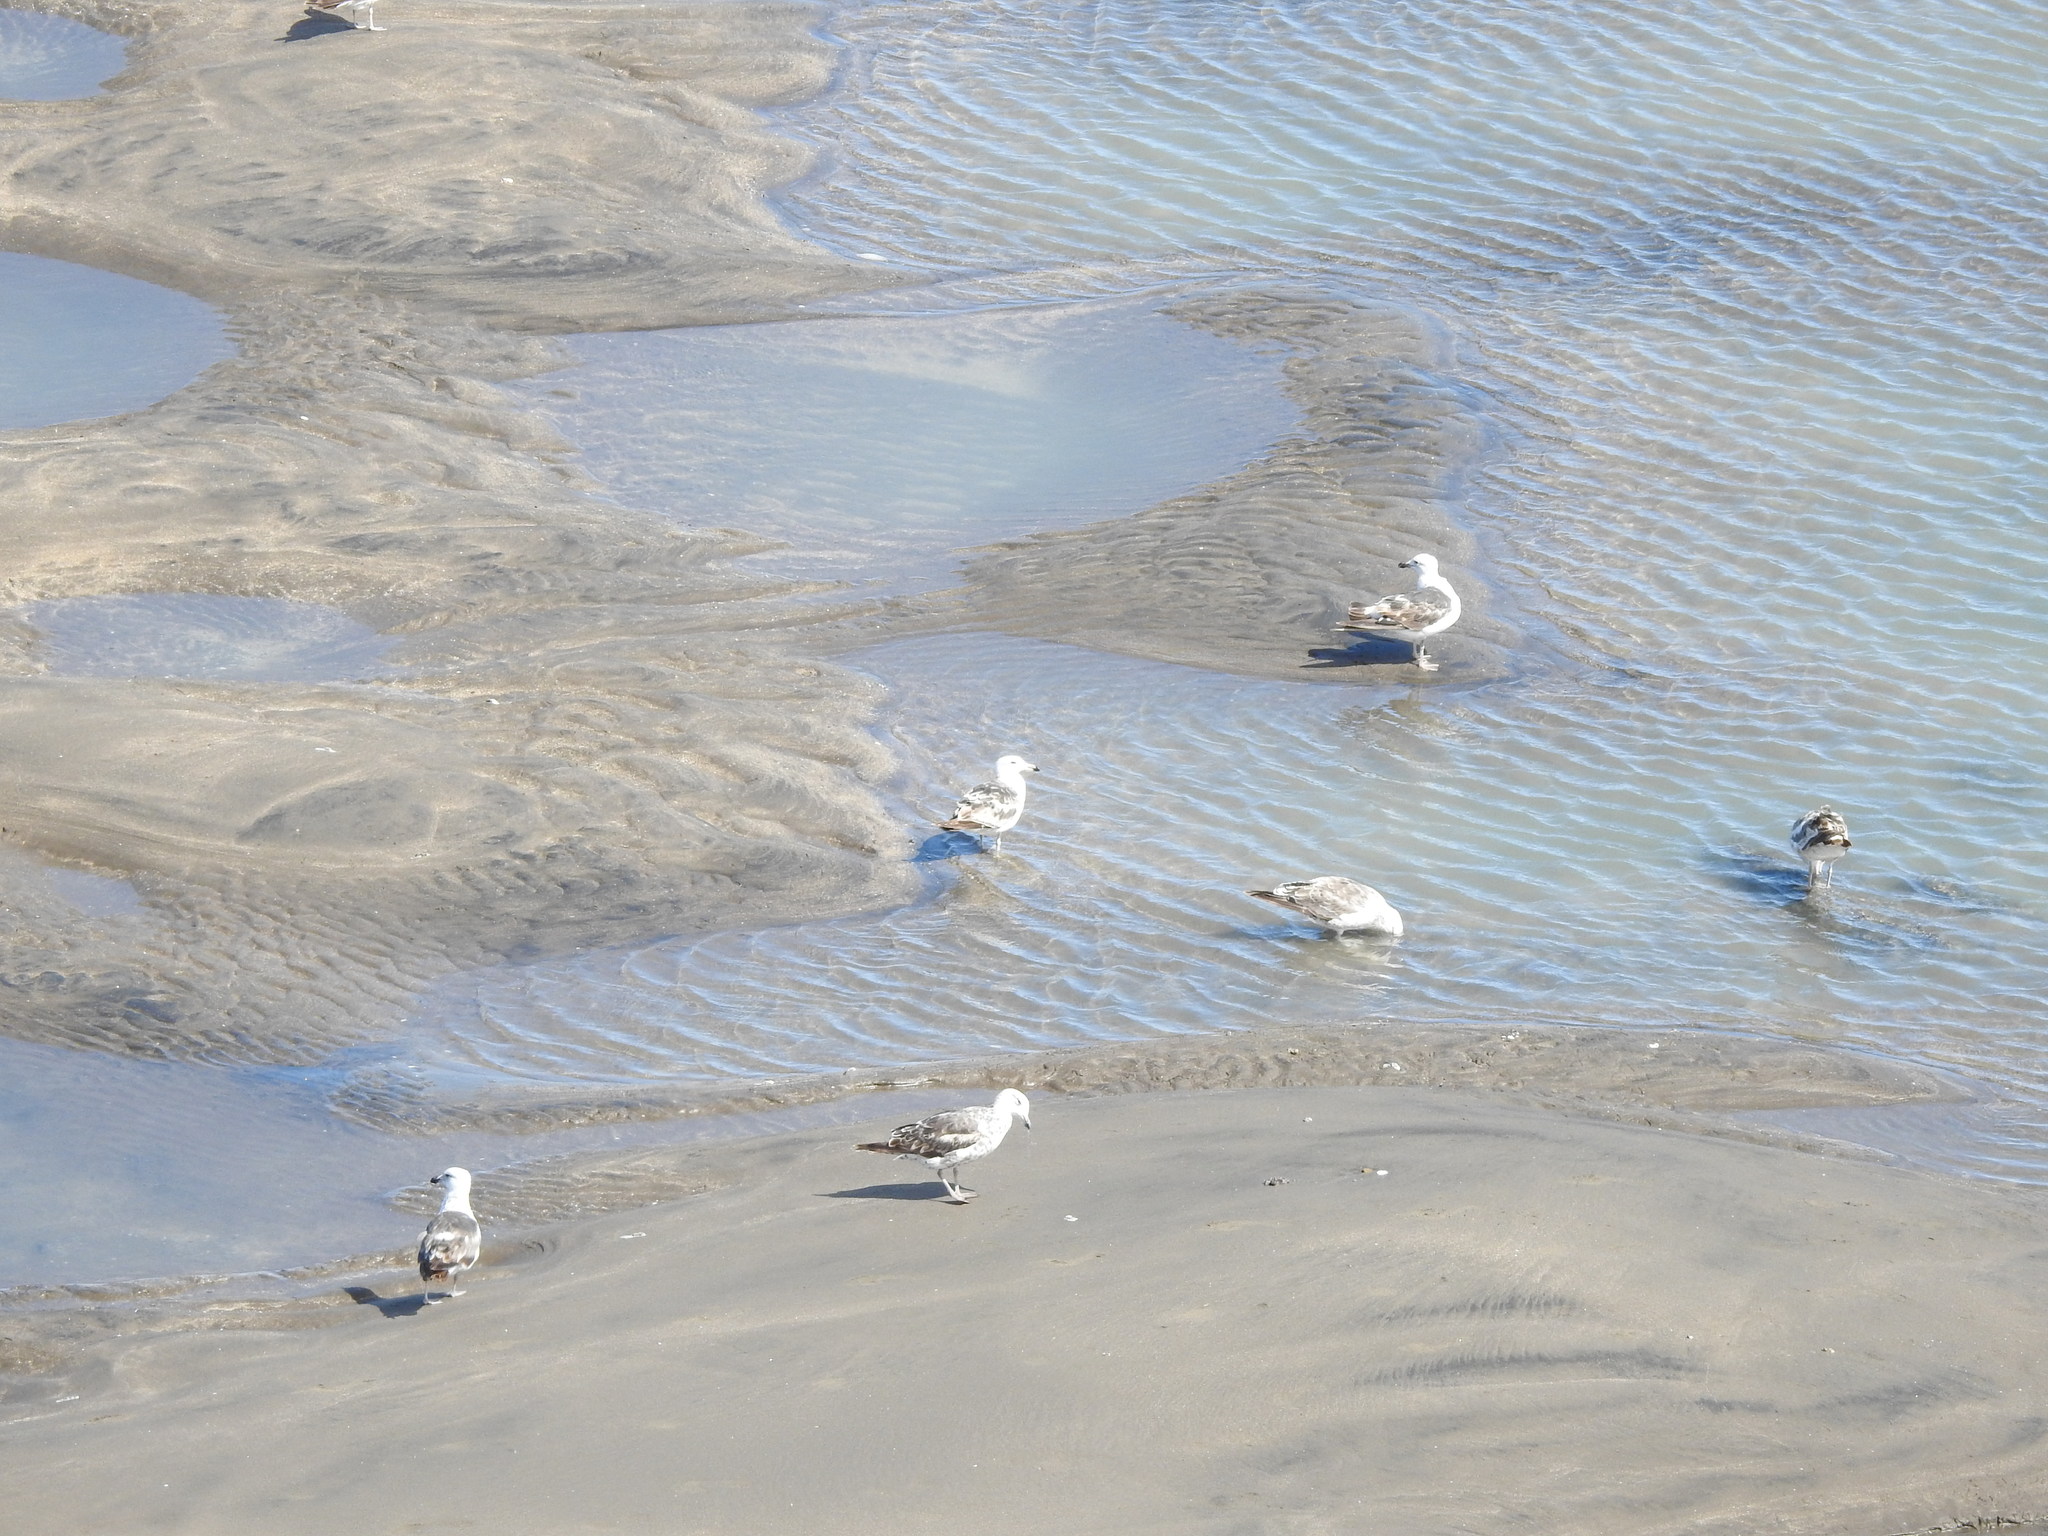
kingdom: Animalia
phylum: Chordata
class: Aves
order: Charadriiformes
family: Laridae
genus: Larus
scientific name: Larus dominicanus
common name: Kelp gull
